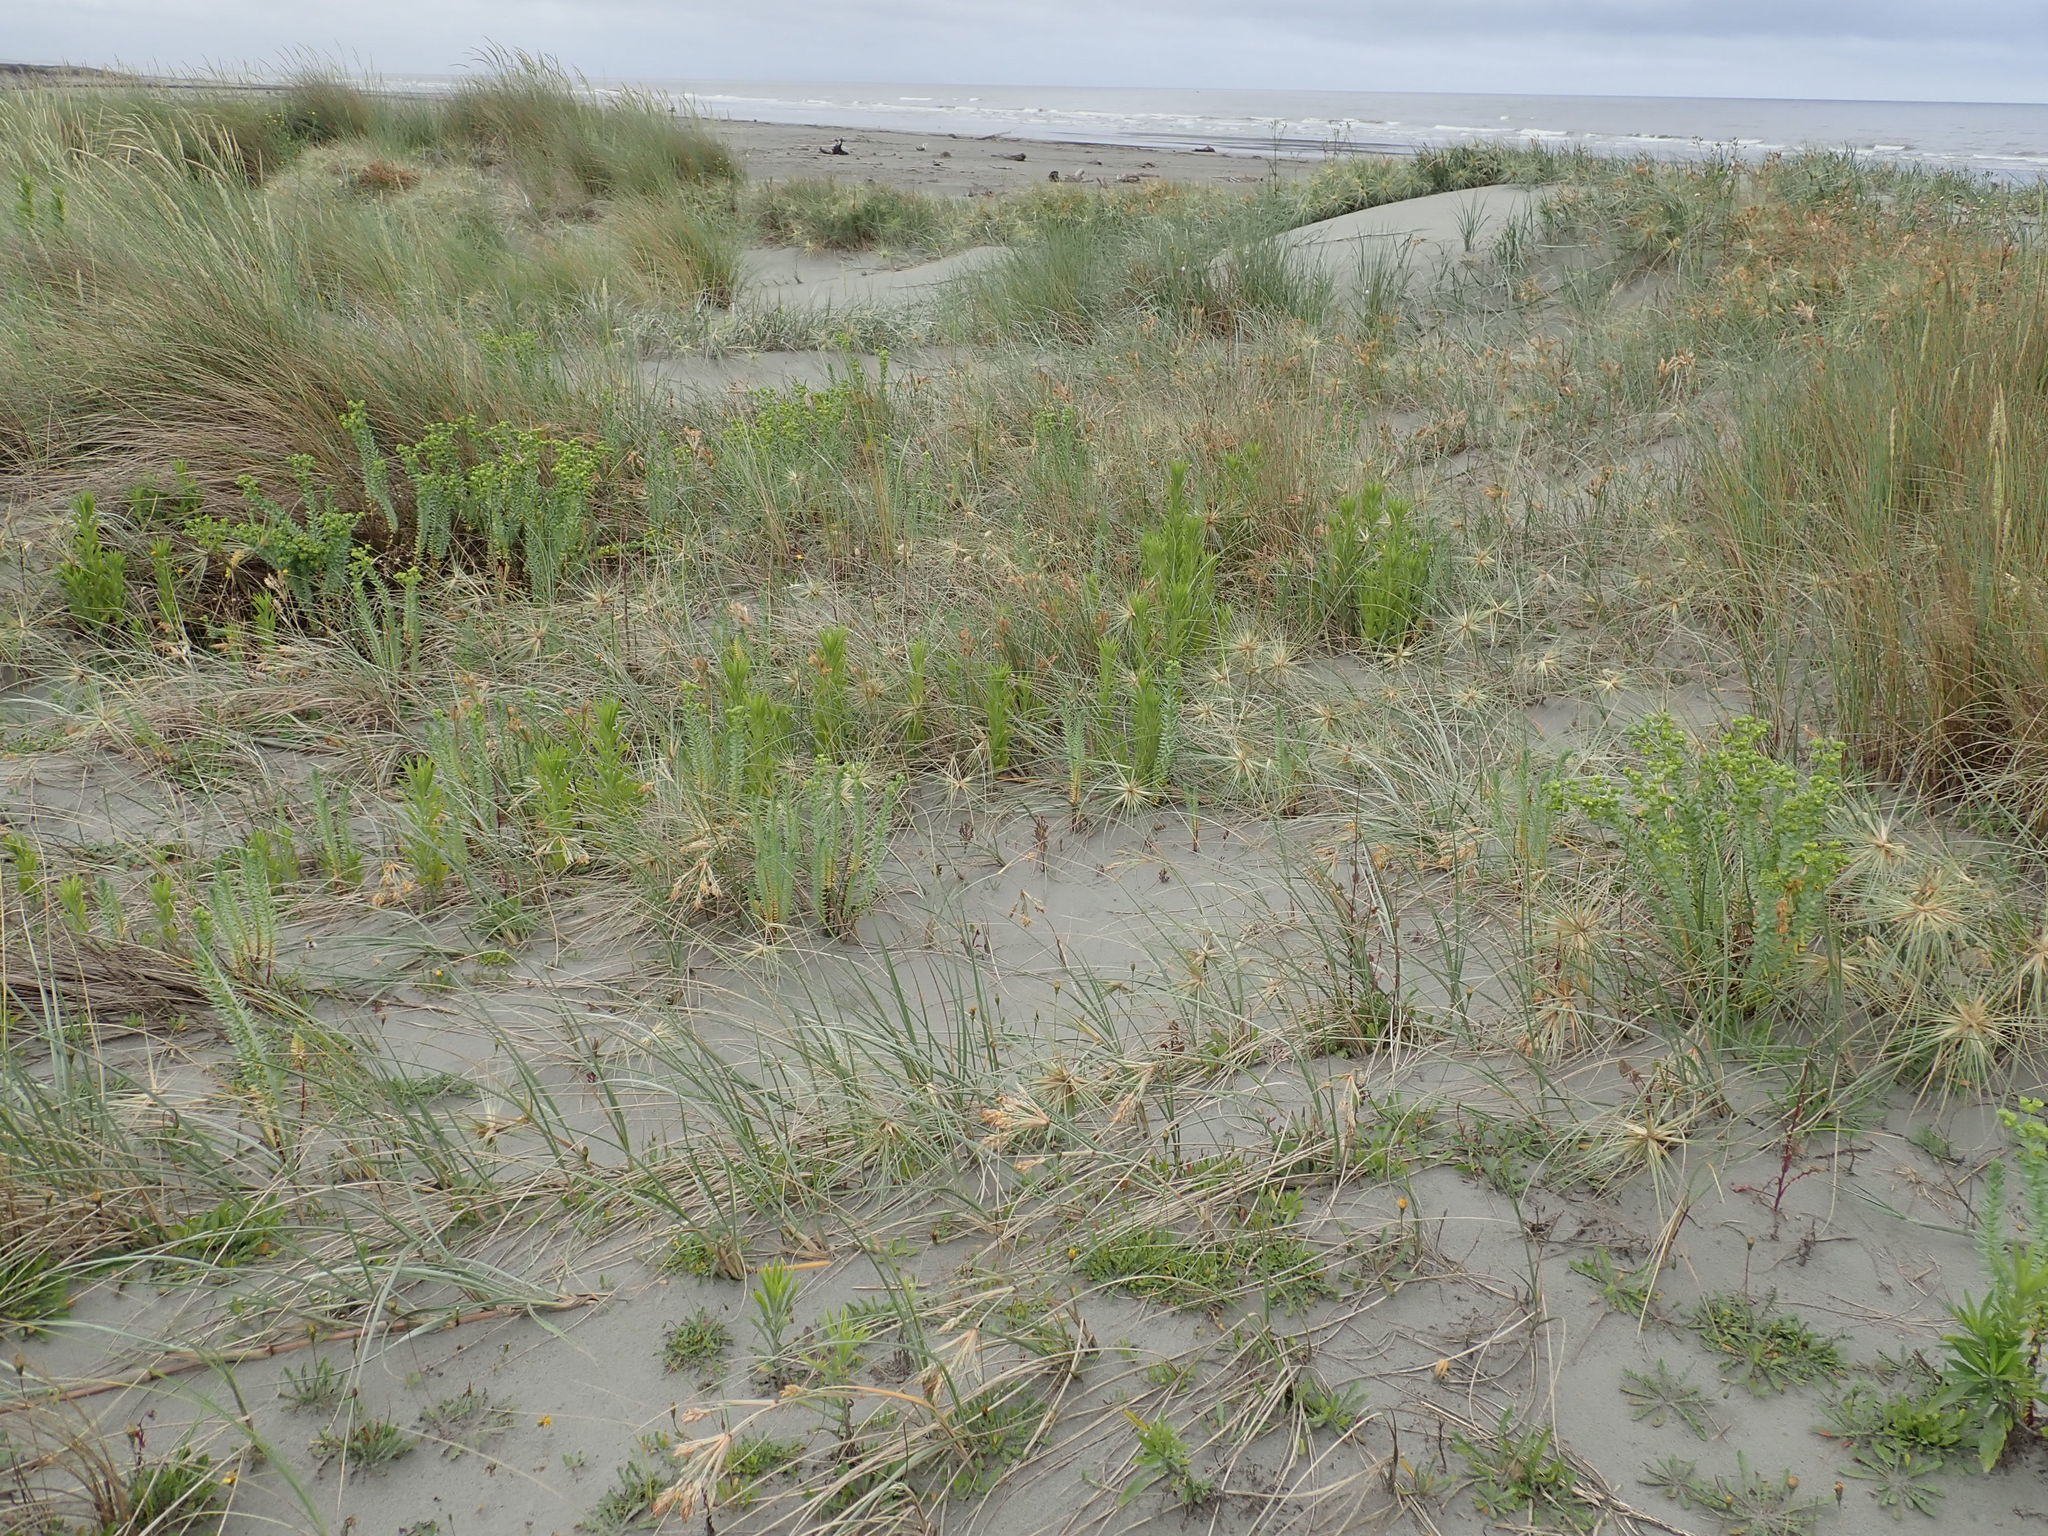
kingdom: Plantae
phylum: Tracheophyta
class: Magnoliopsida
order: Malpighiales
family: Euphorbiaceae
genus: Euphorbia
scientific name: Euphorbia paralias
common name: Sea spurge
